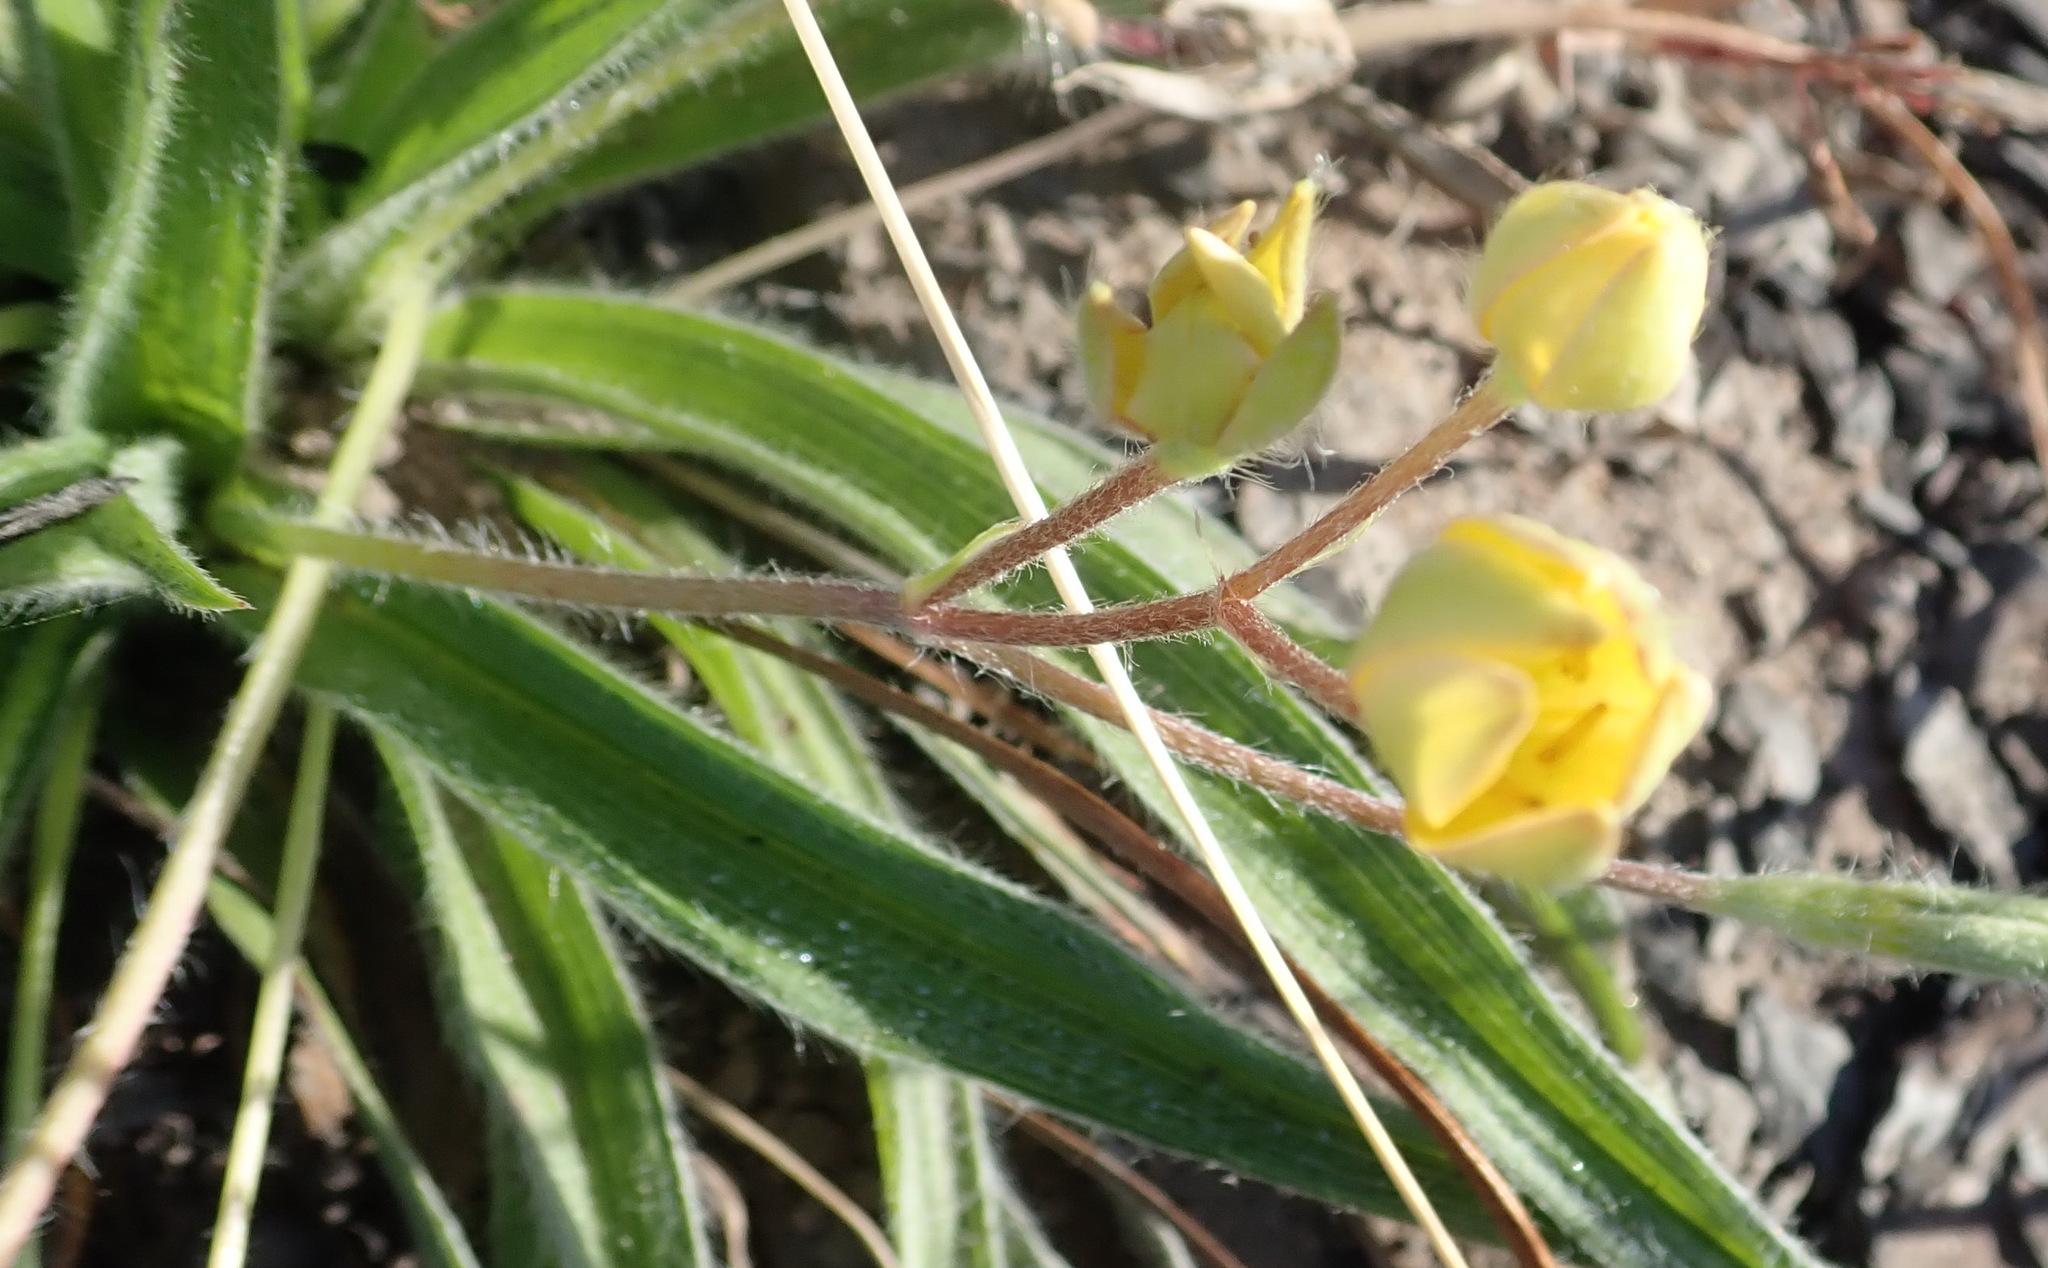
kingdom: Plantae
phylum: Tracheophyta
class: Liliopsida
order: Asparagales
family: Hypoxidaceae
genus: Hypoxis
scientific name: Hypoxis sobolifera
